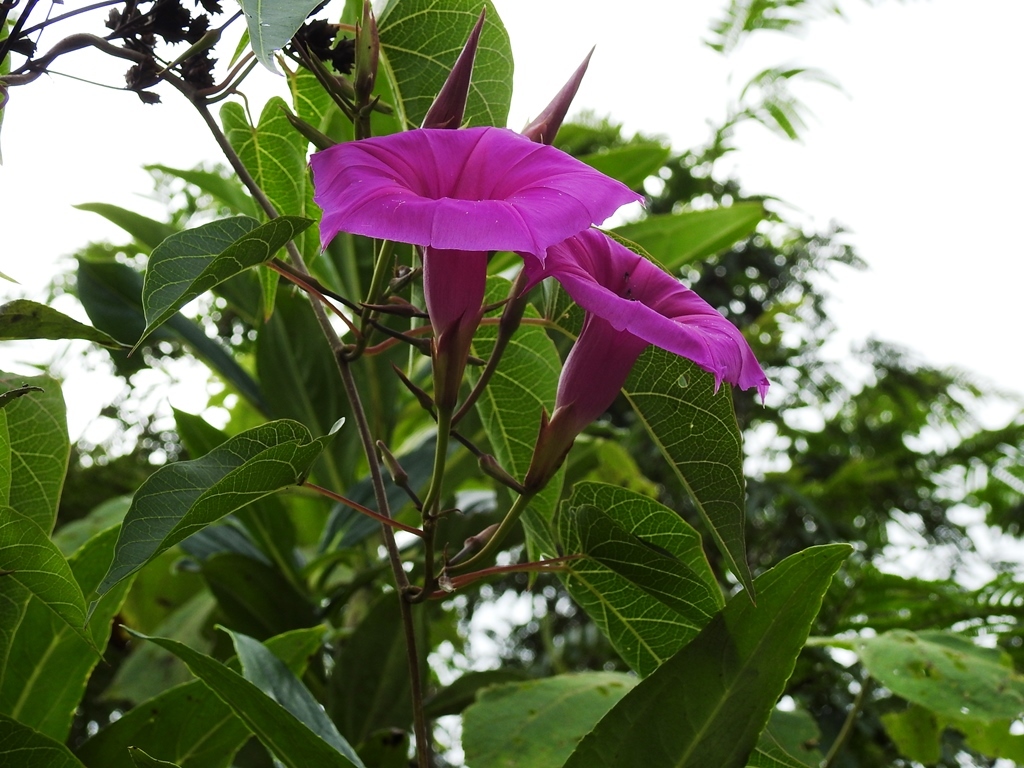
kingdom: Plantae
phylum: Tracheophyta
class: Magnoliopsida
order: Solanales
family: Convolvulaceae
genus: Ipomoea
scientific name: Ipomoea bernoulliana
